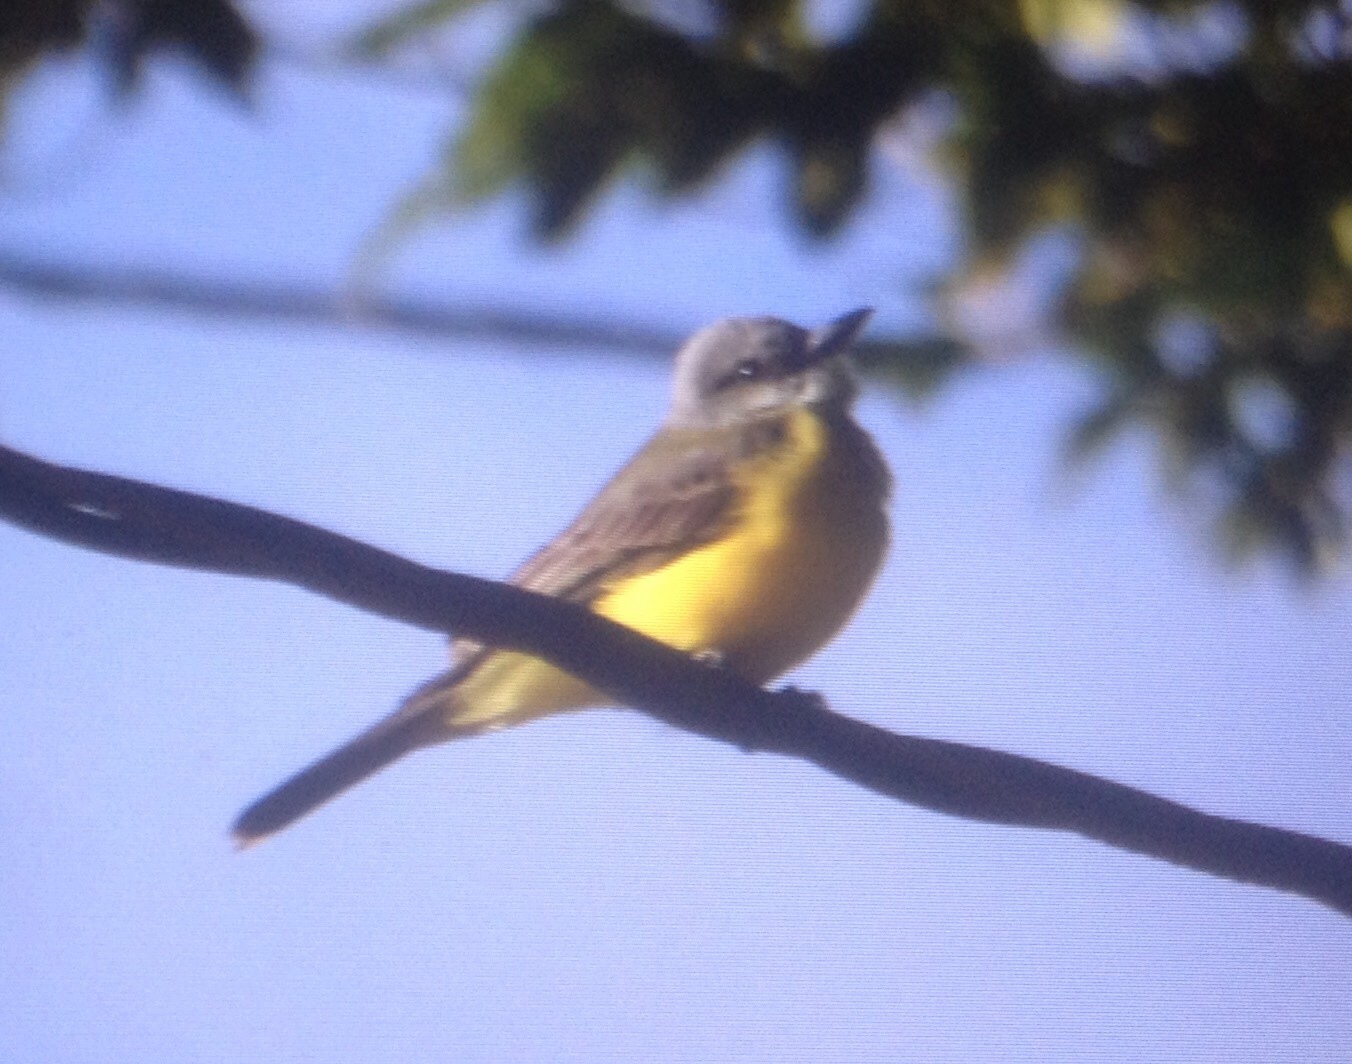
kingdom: Animalia
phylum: Chordata
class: Aves
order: Passeriformes
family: Tyrannidae
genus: Tyrannus
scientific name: Tyrannus melancholicus
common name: Tropical kingbird
